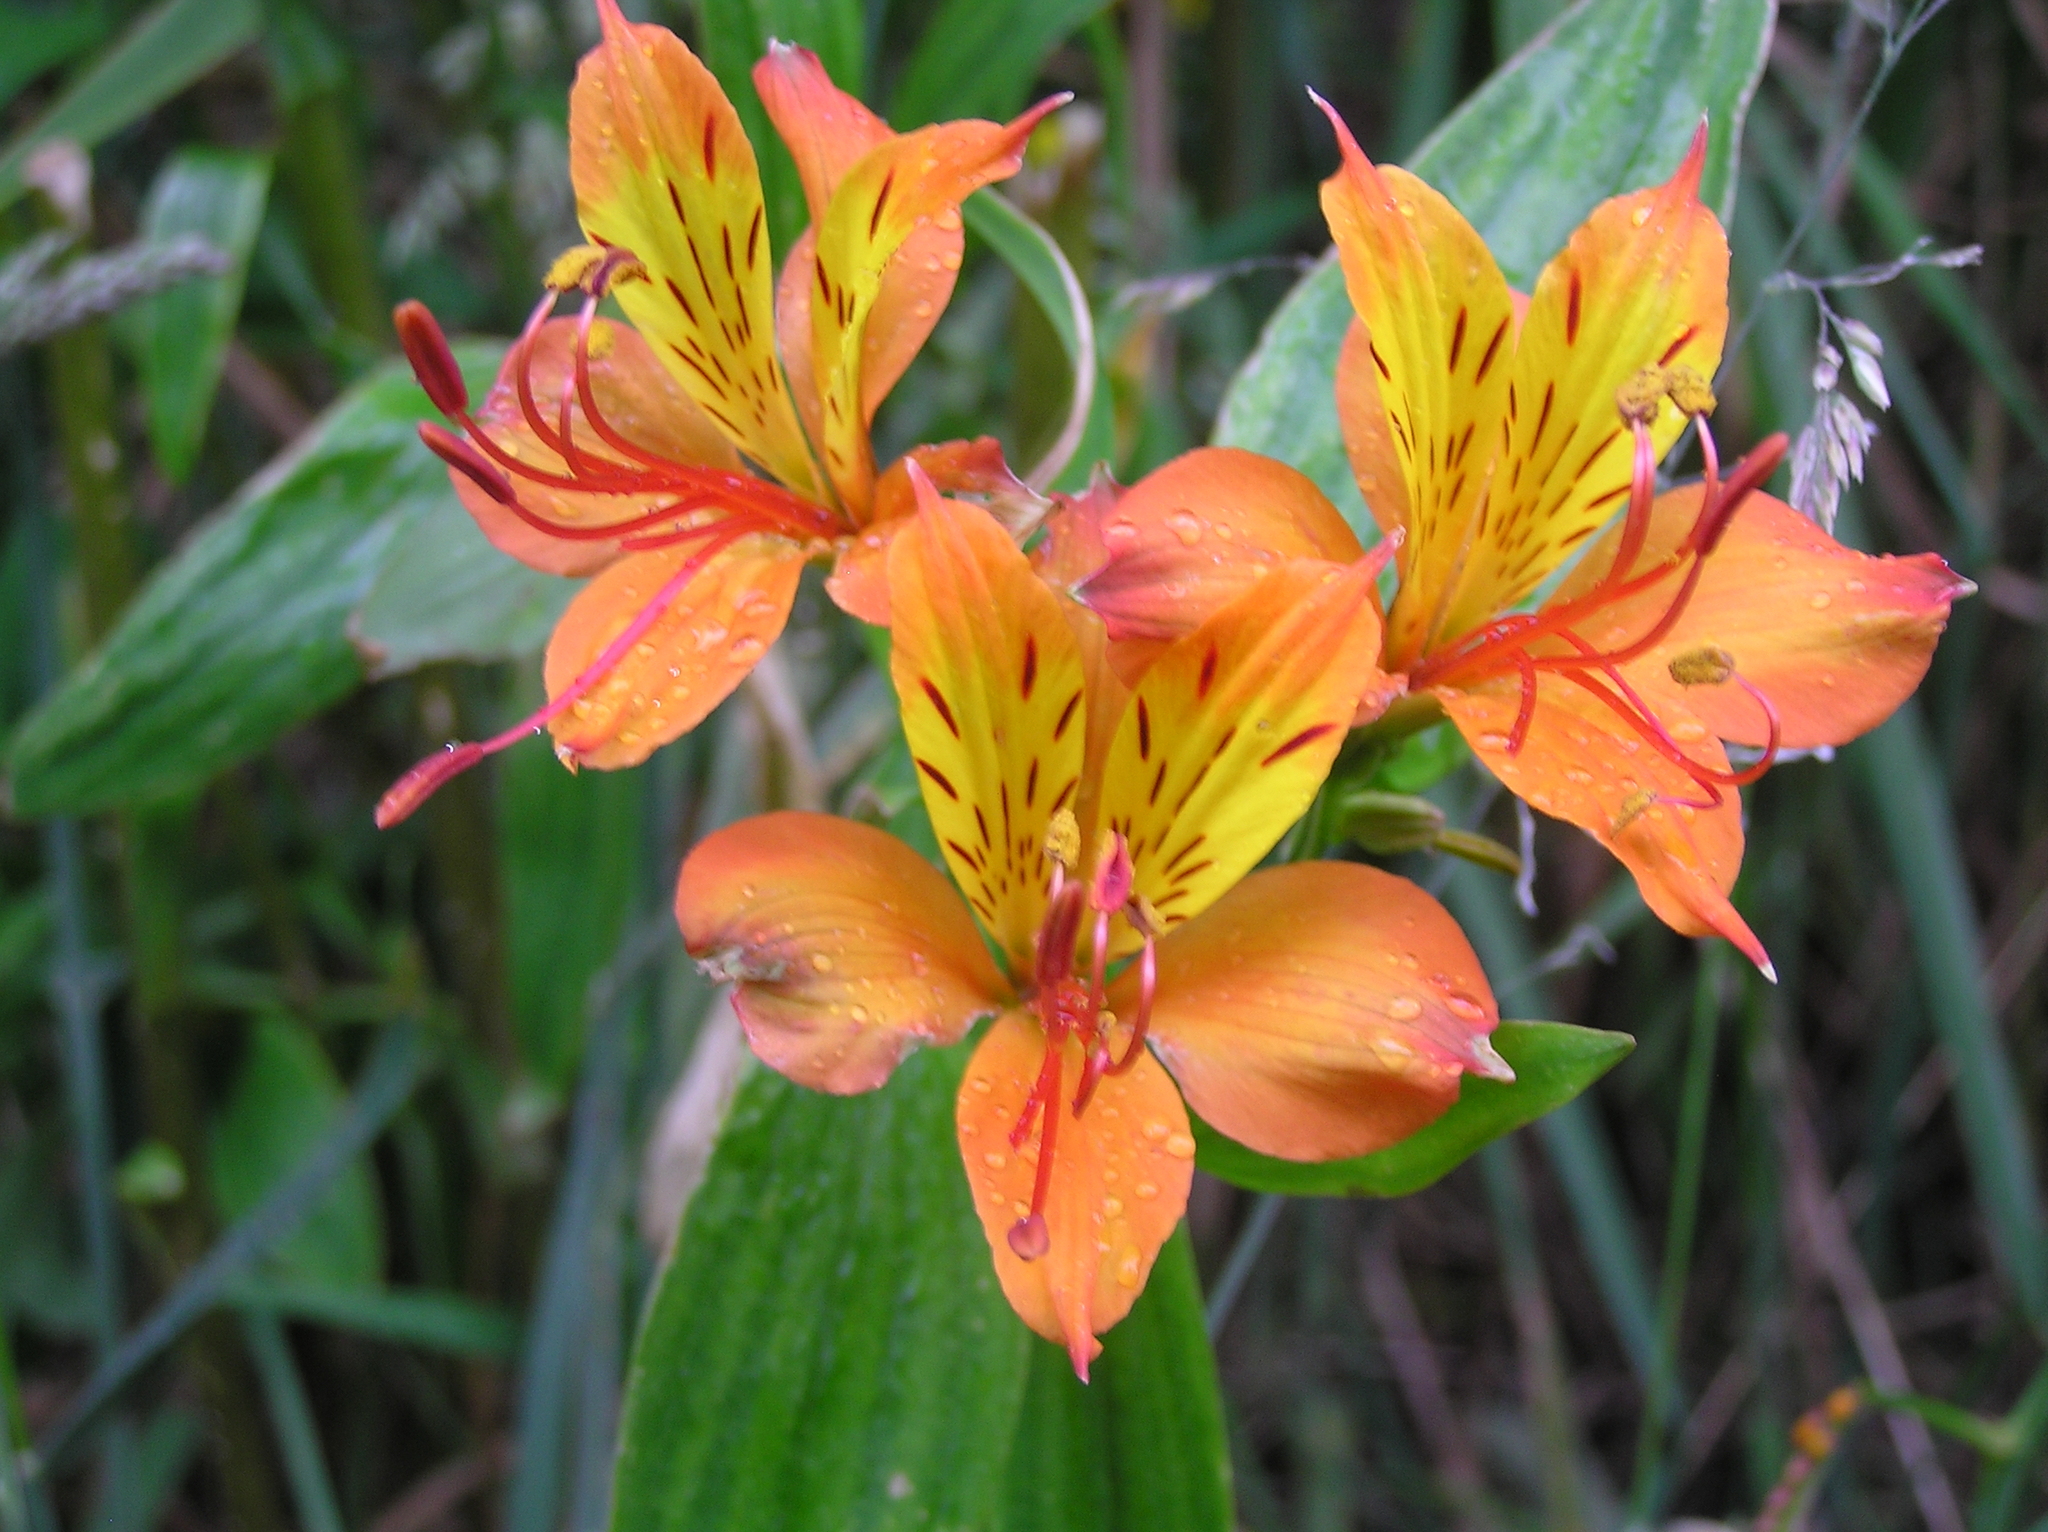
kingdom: Plantae
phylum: Tracheophyta
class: Liliopsida
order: Liliales
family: Alstroemeriaceae
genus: Alstroemeria
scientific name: Alstroemeria aurea
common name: Peruvian lily
